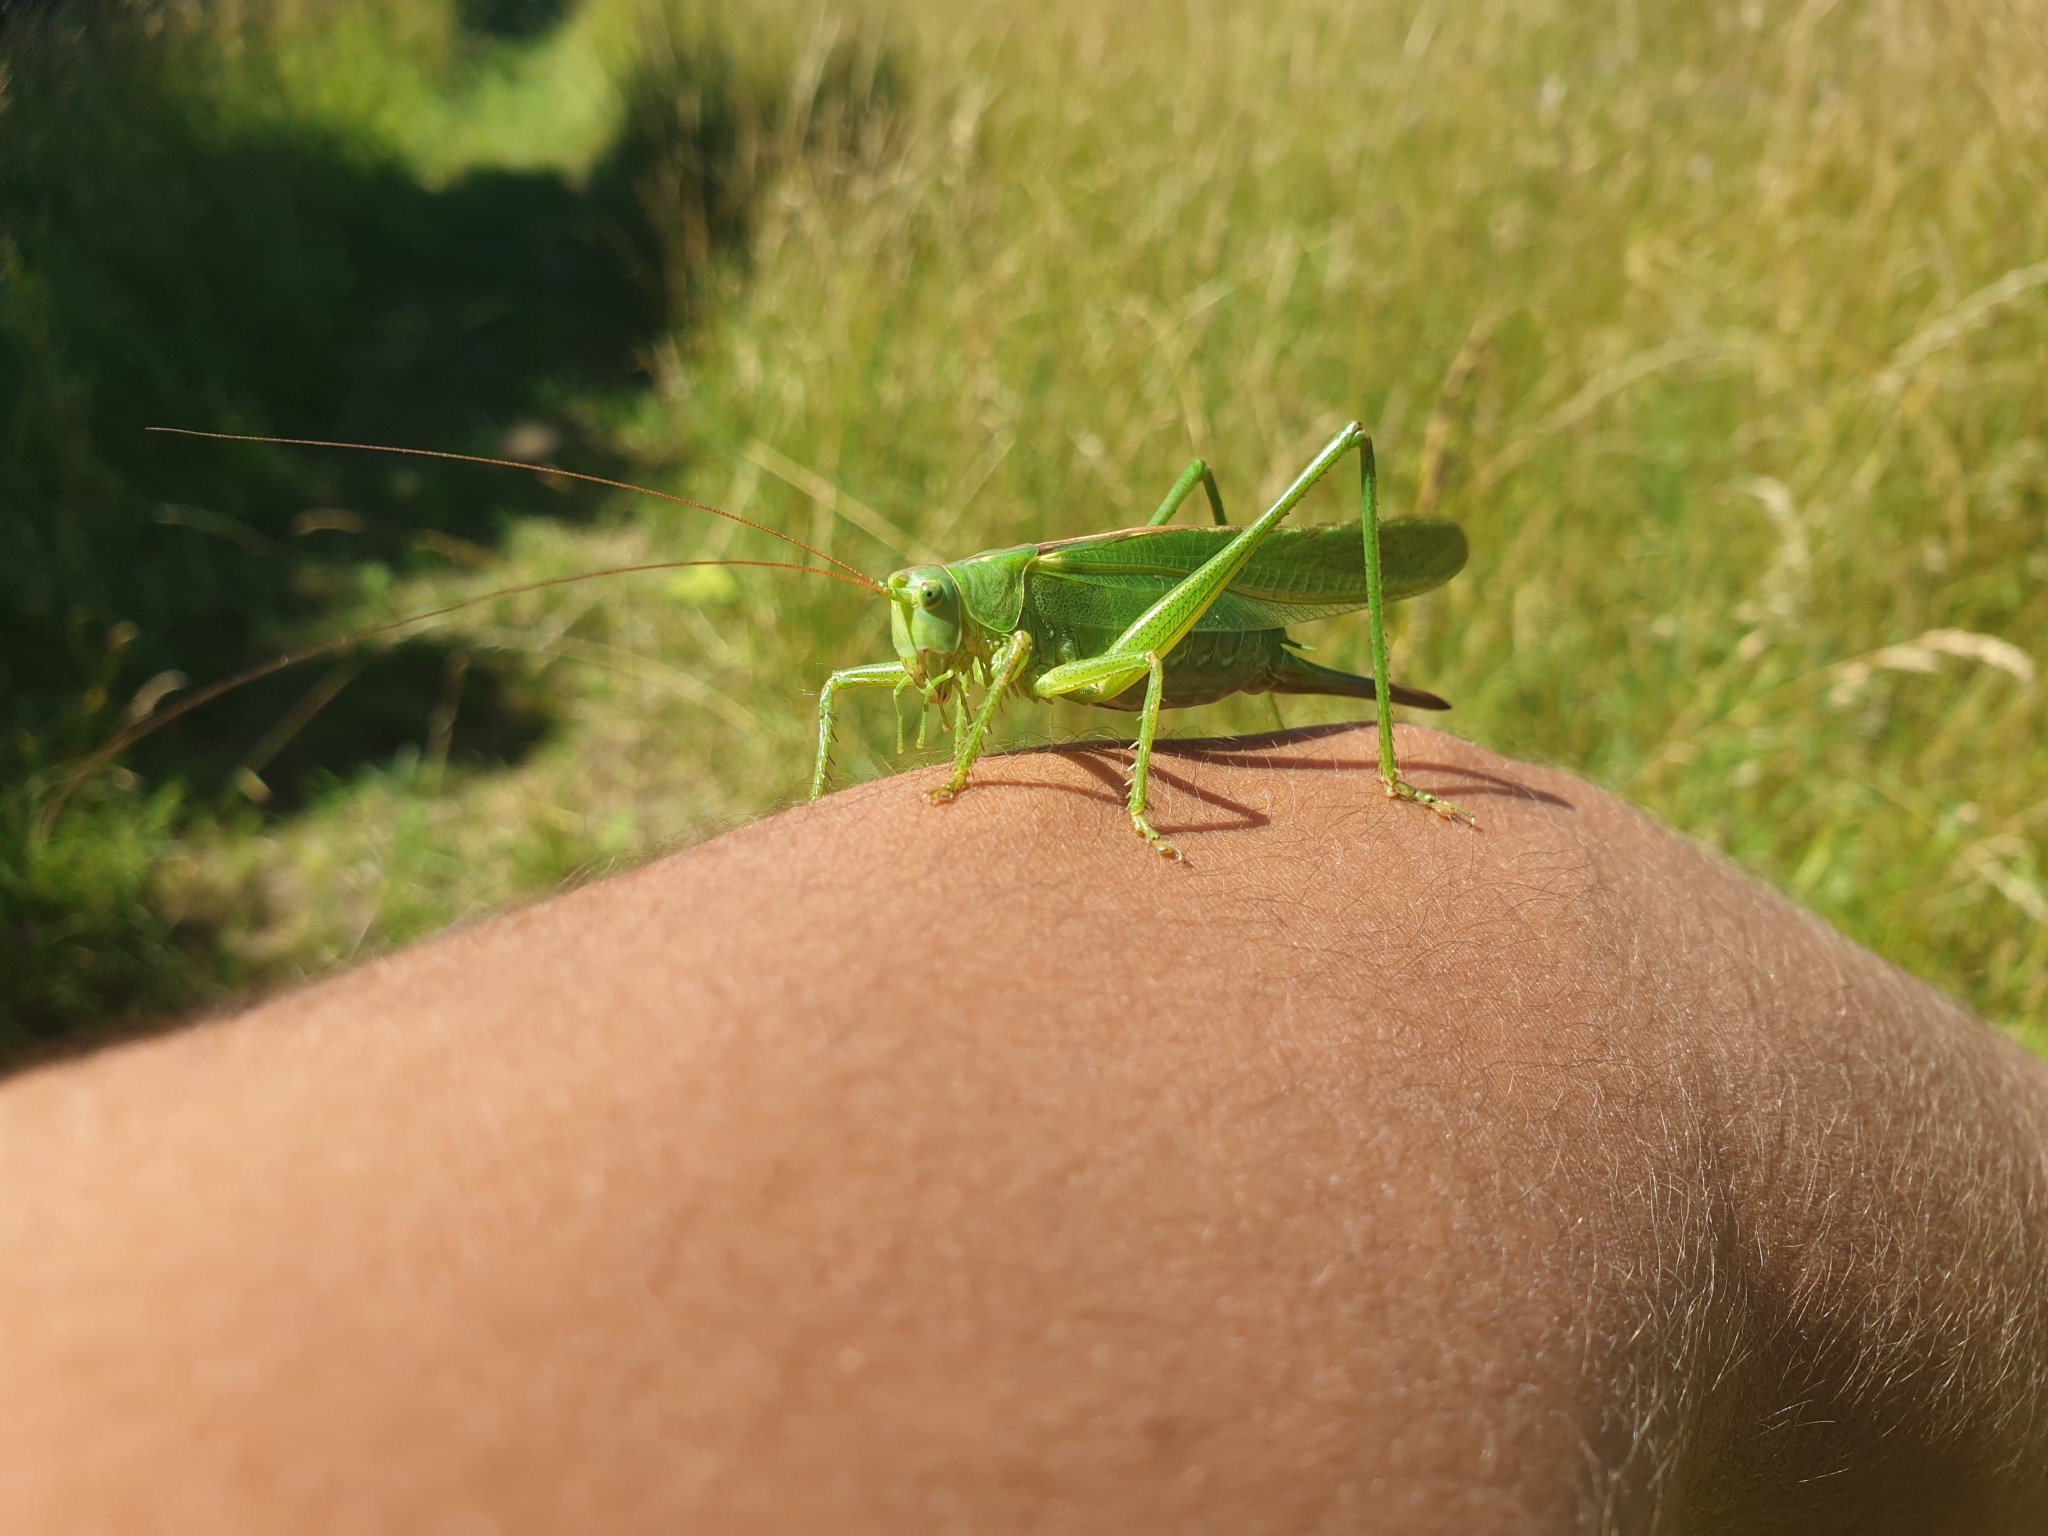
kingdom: Animalia
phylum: Arthropoda
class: Insecta
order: Orthoptera
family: Tettigoniidae
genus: Tettigonia
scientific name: Tettigonia viridissima
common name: Great green bush-cricket
